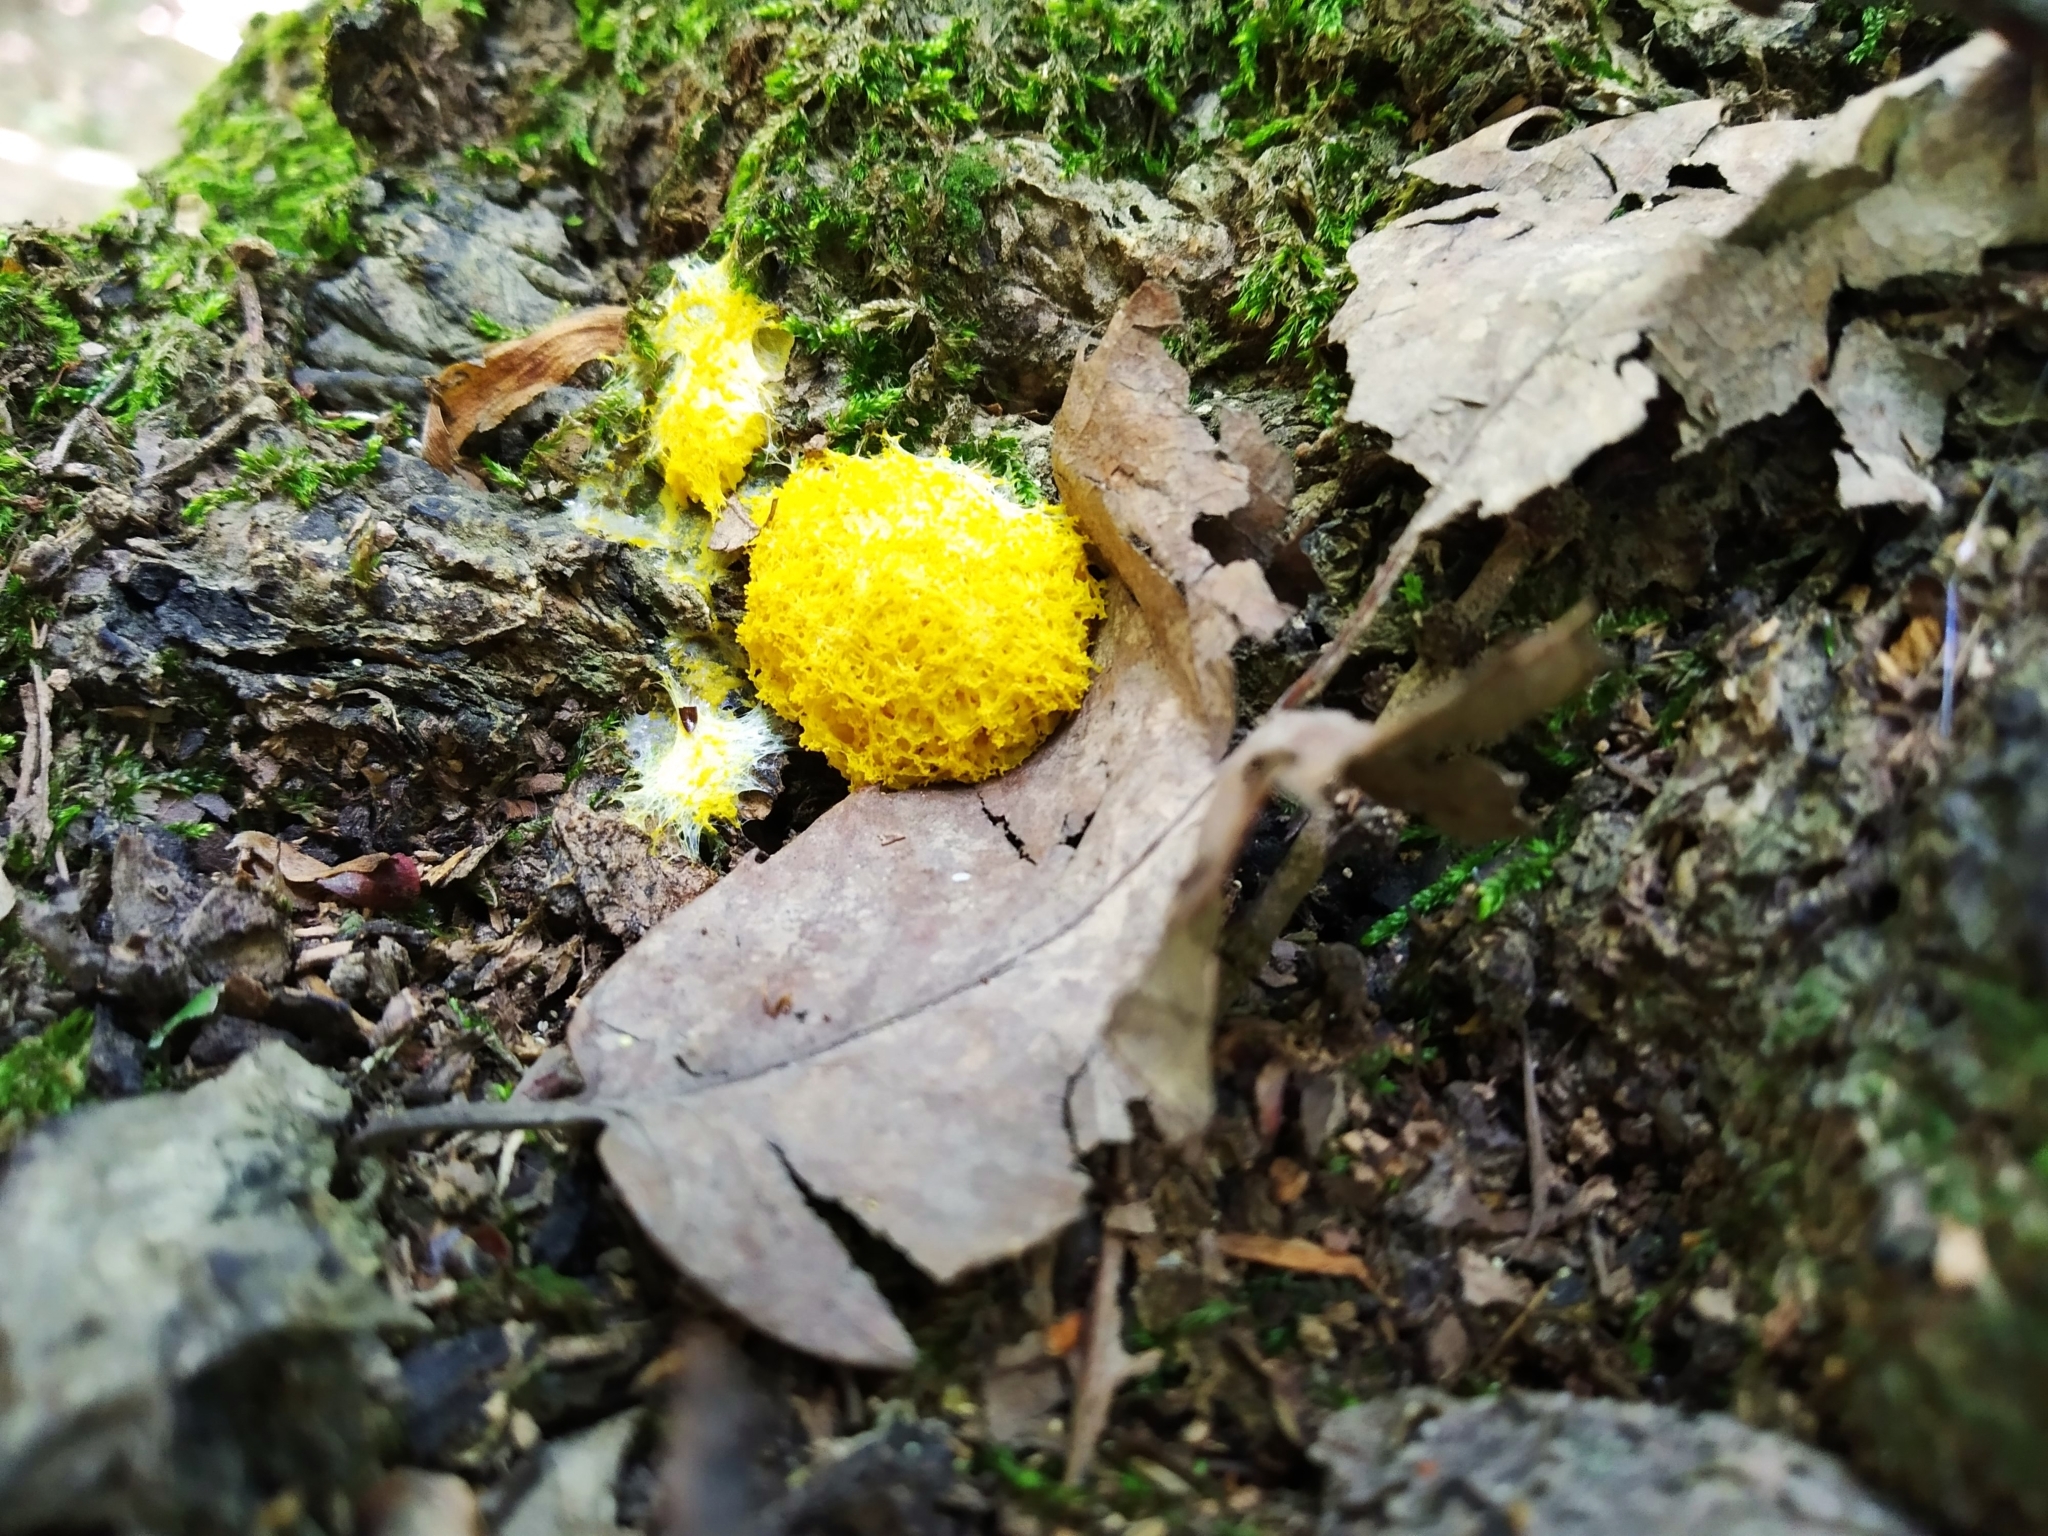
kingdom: Protozoa
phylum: Mycetozoa
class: Myxomycetes
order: Physarales
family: Physaraceae
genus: Fuligo
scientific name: Fuligo septica
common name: Dog vomit slime mold
